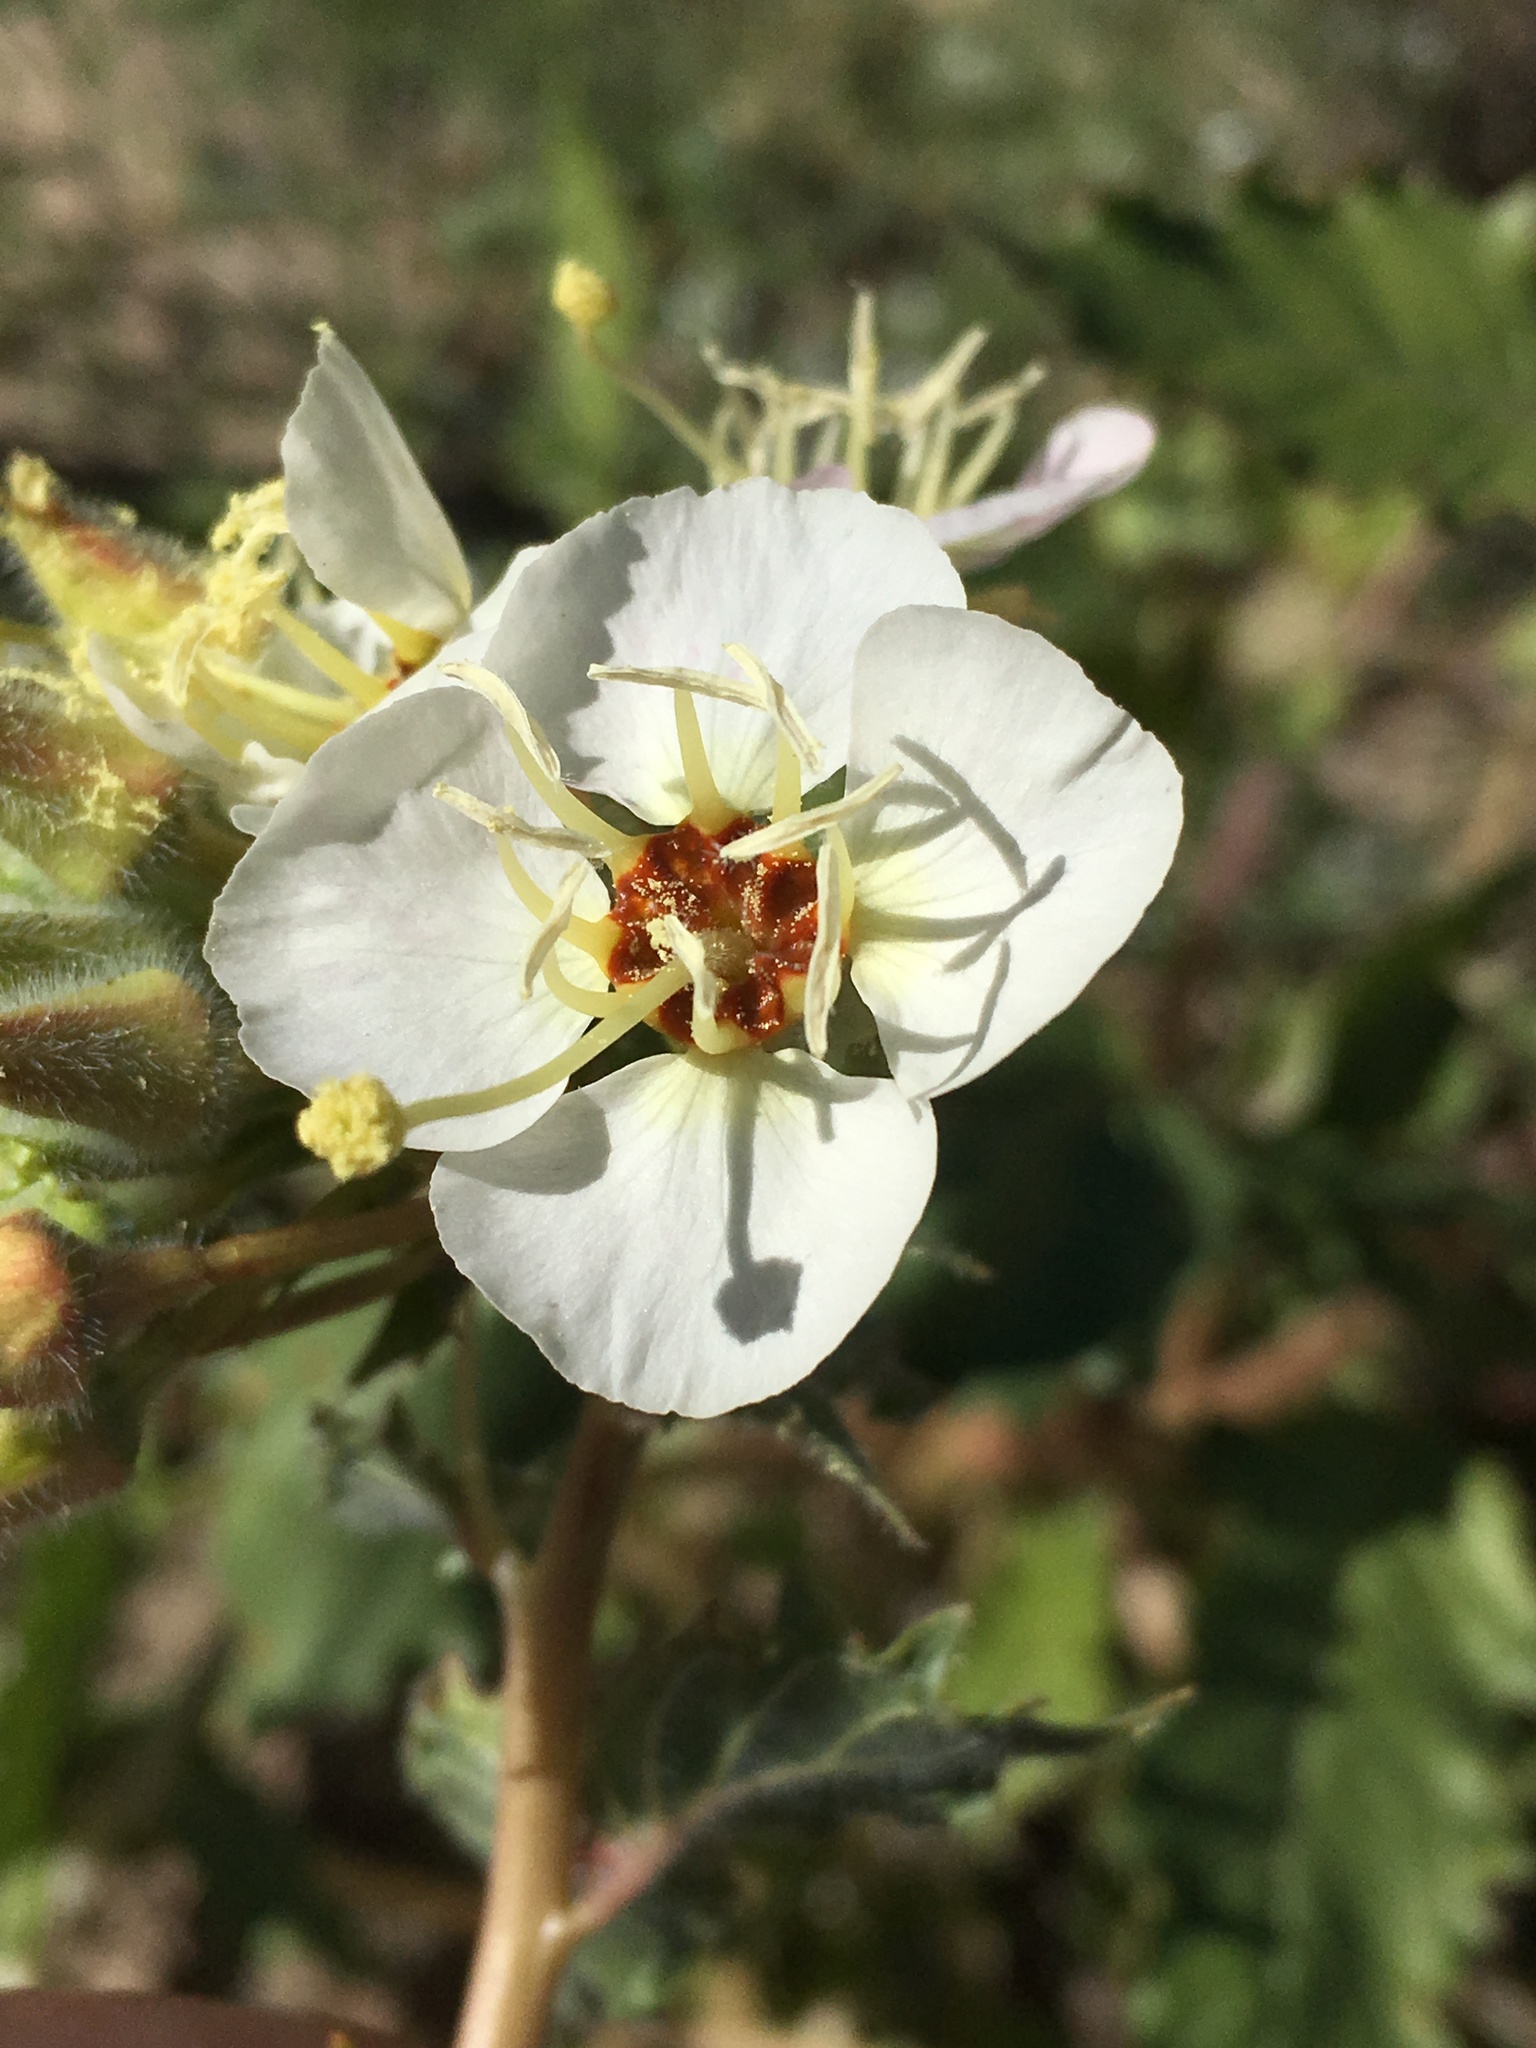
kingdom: Plantae
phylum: Tracheophyta
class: Magnoliopsida
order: Myrtales
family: Onagraceae
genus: Chylismia
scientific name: Chylismia claviformis
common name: Browneyes
